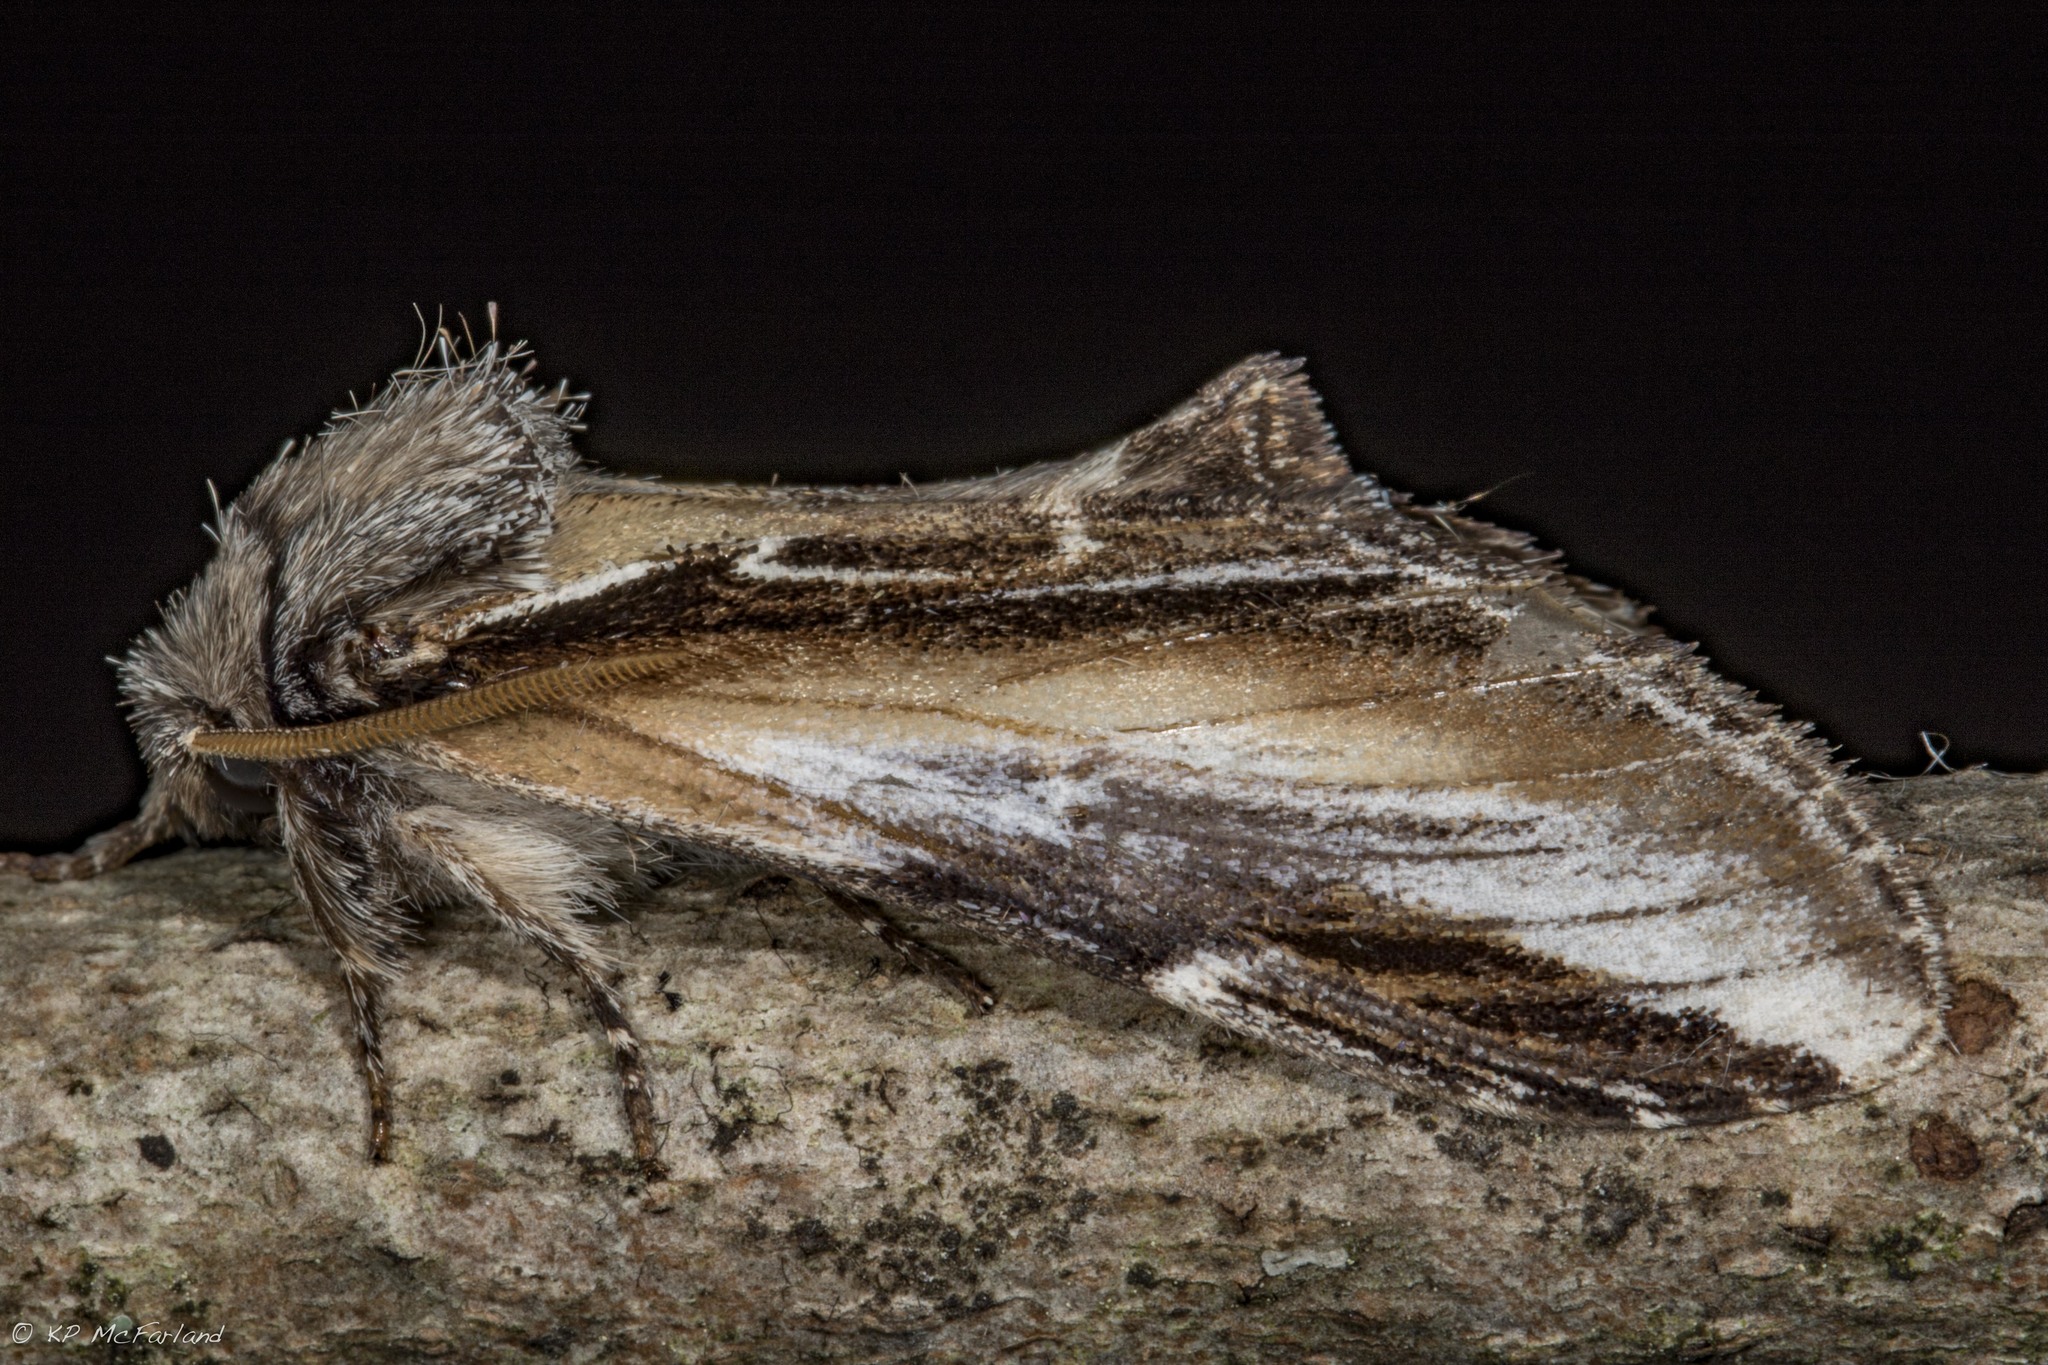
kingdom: Animalia
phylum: Arthropoda
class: Insecta
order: Lepidoptera
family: Notodontidae
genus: Pheosia
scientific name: Pheosia rimosa
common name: Black-rimmed prominent
